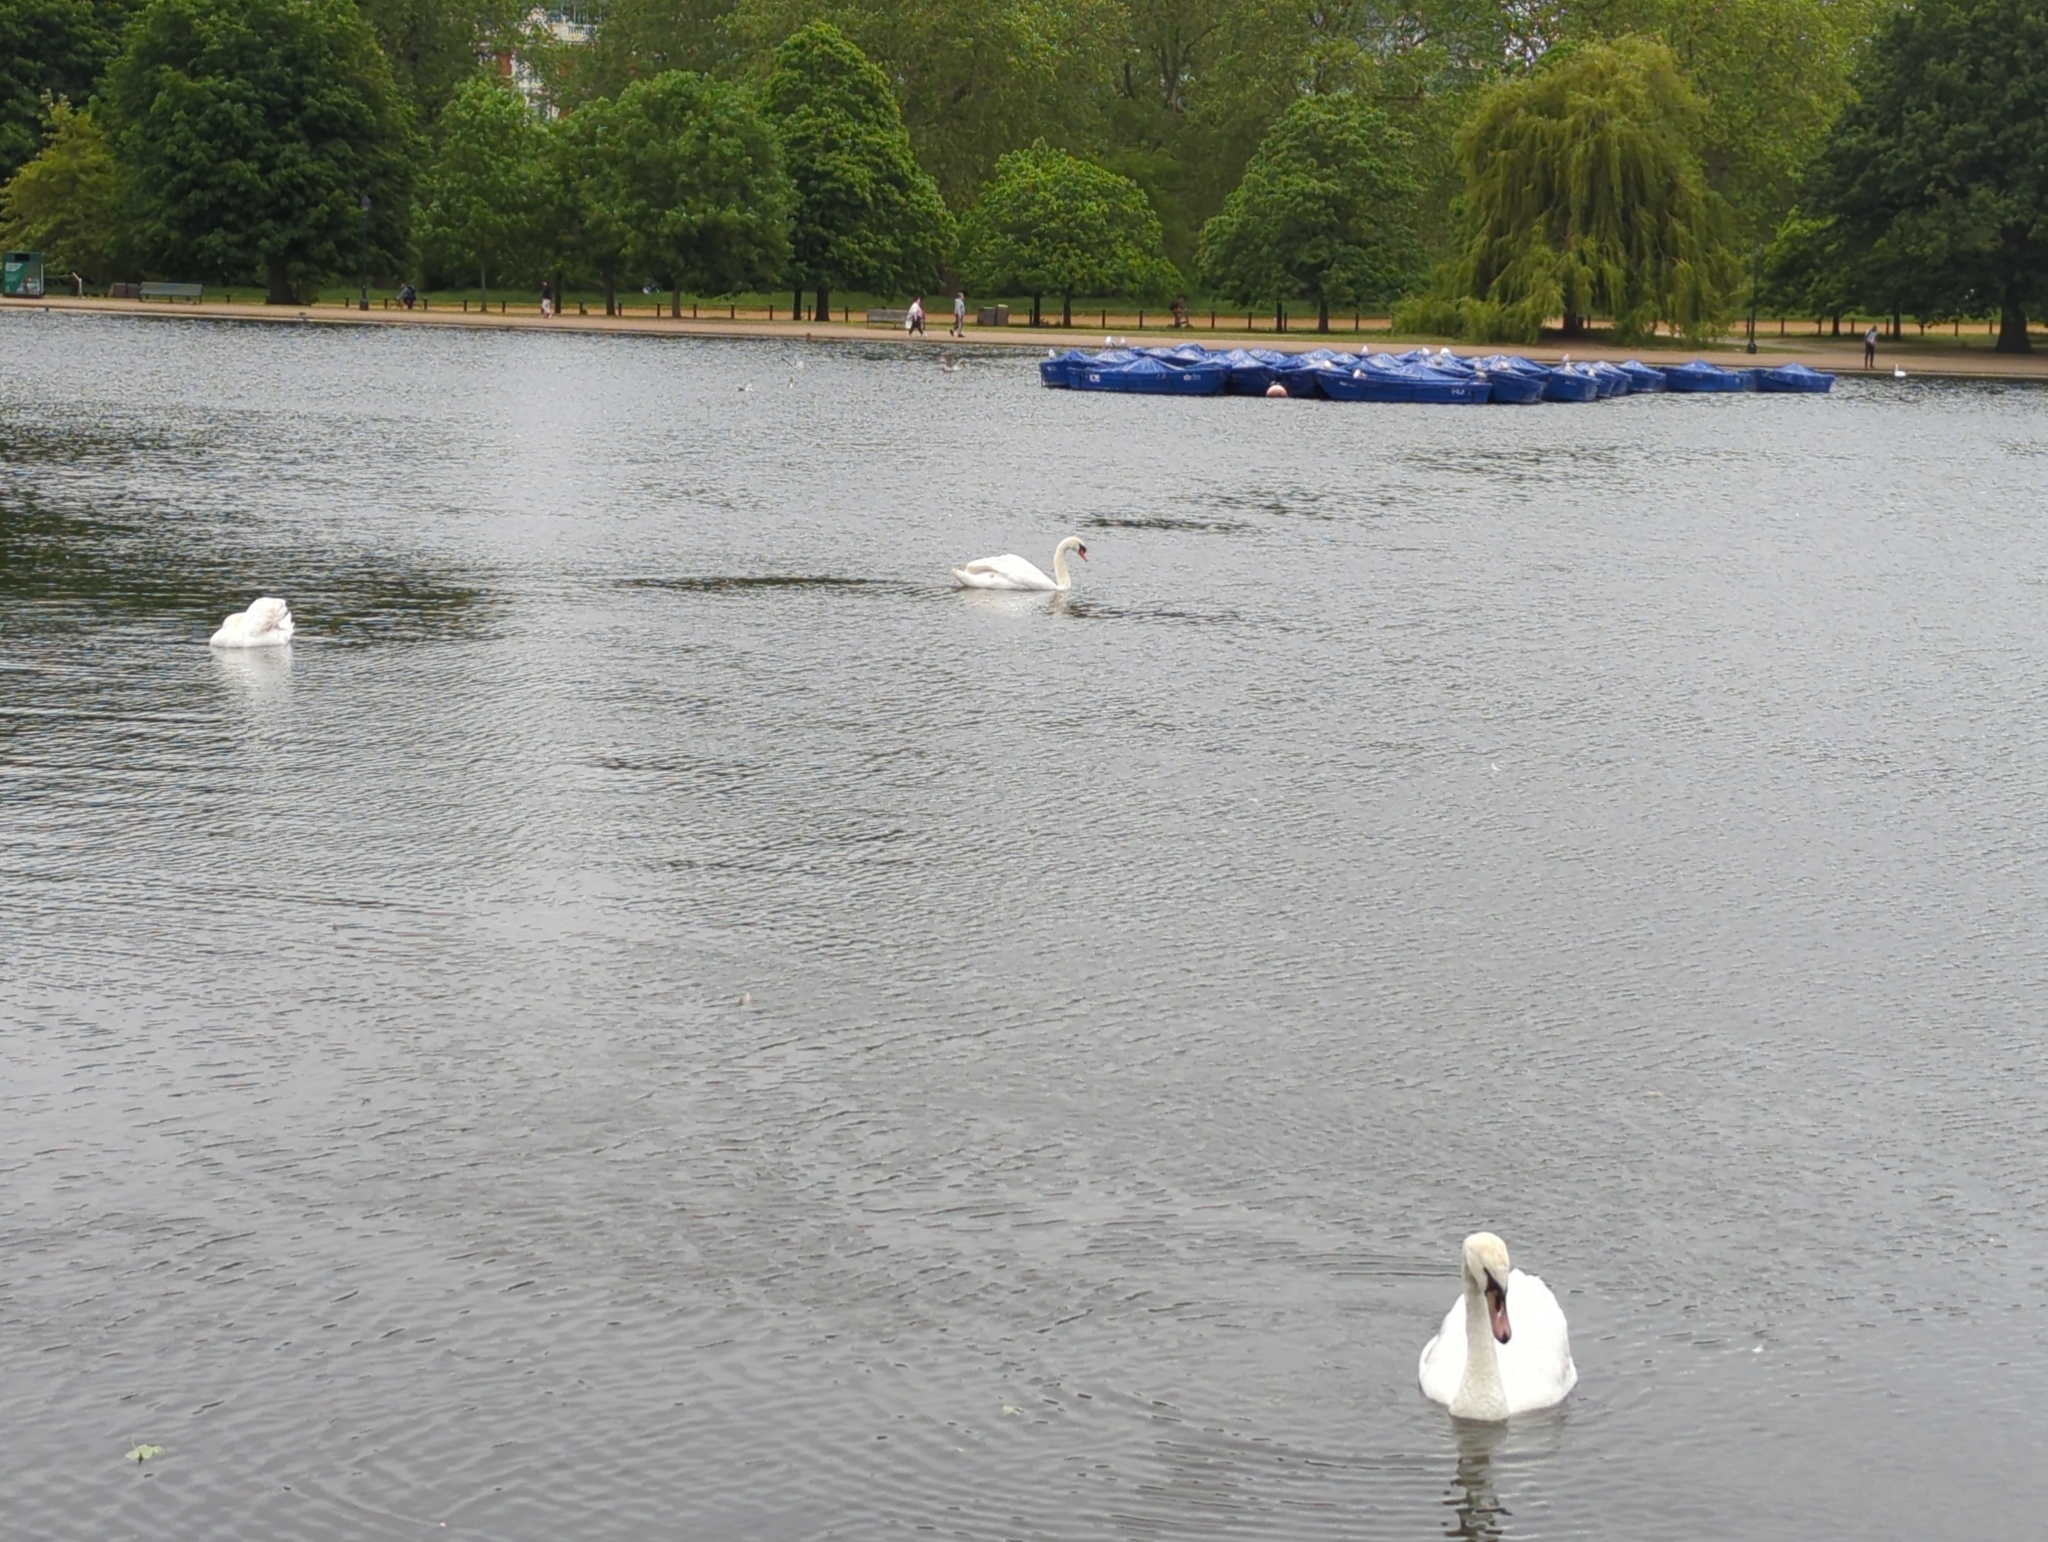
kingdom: Animalia
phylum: Chordata
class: Aves
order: Anseriformes
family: Anatidae
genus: Cygnus
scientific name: Cygnus olor
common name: Mute swan
